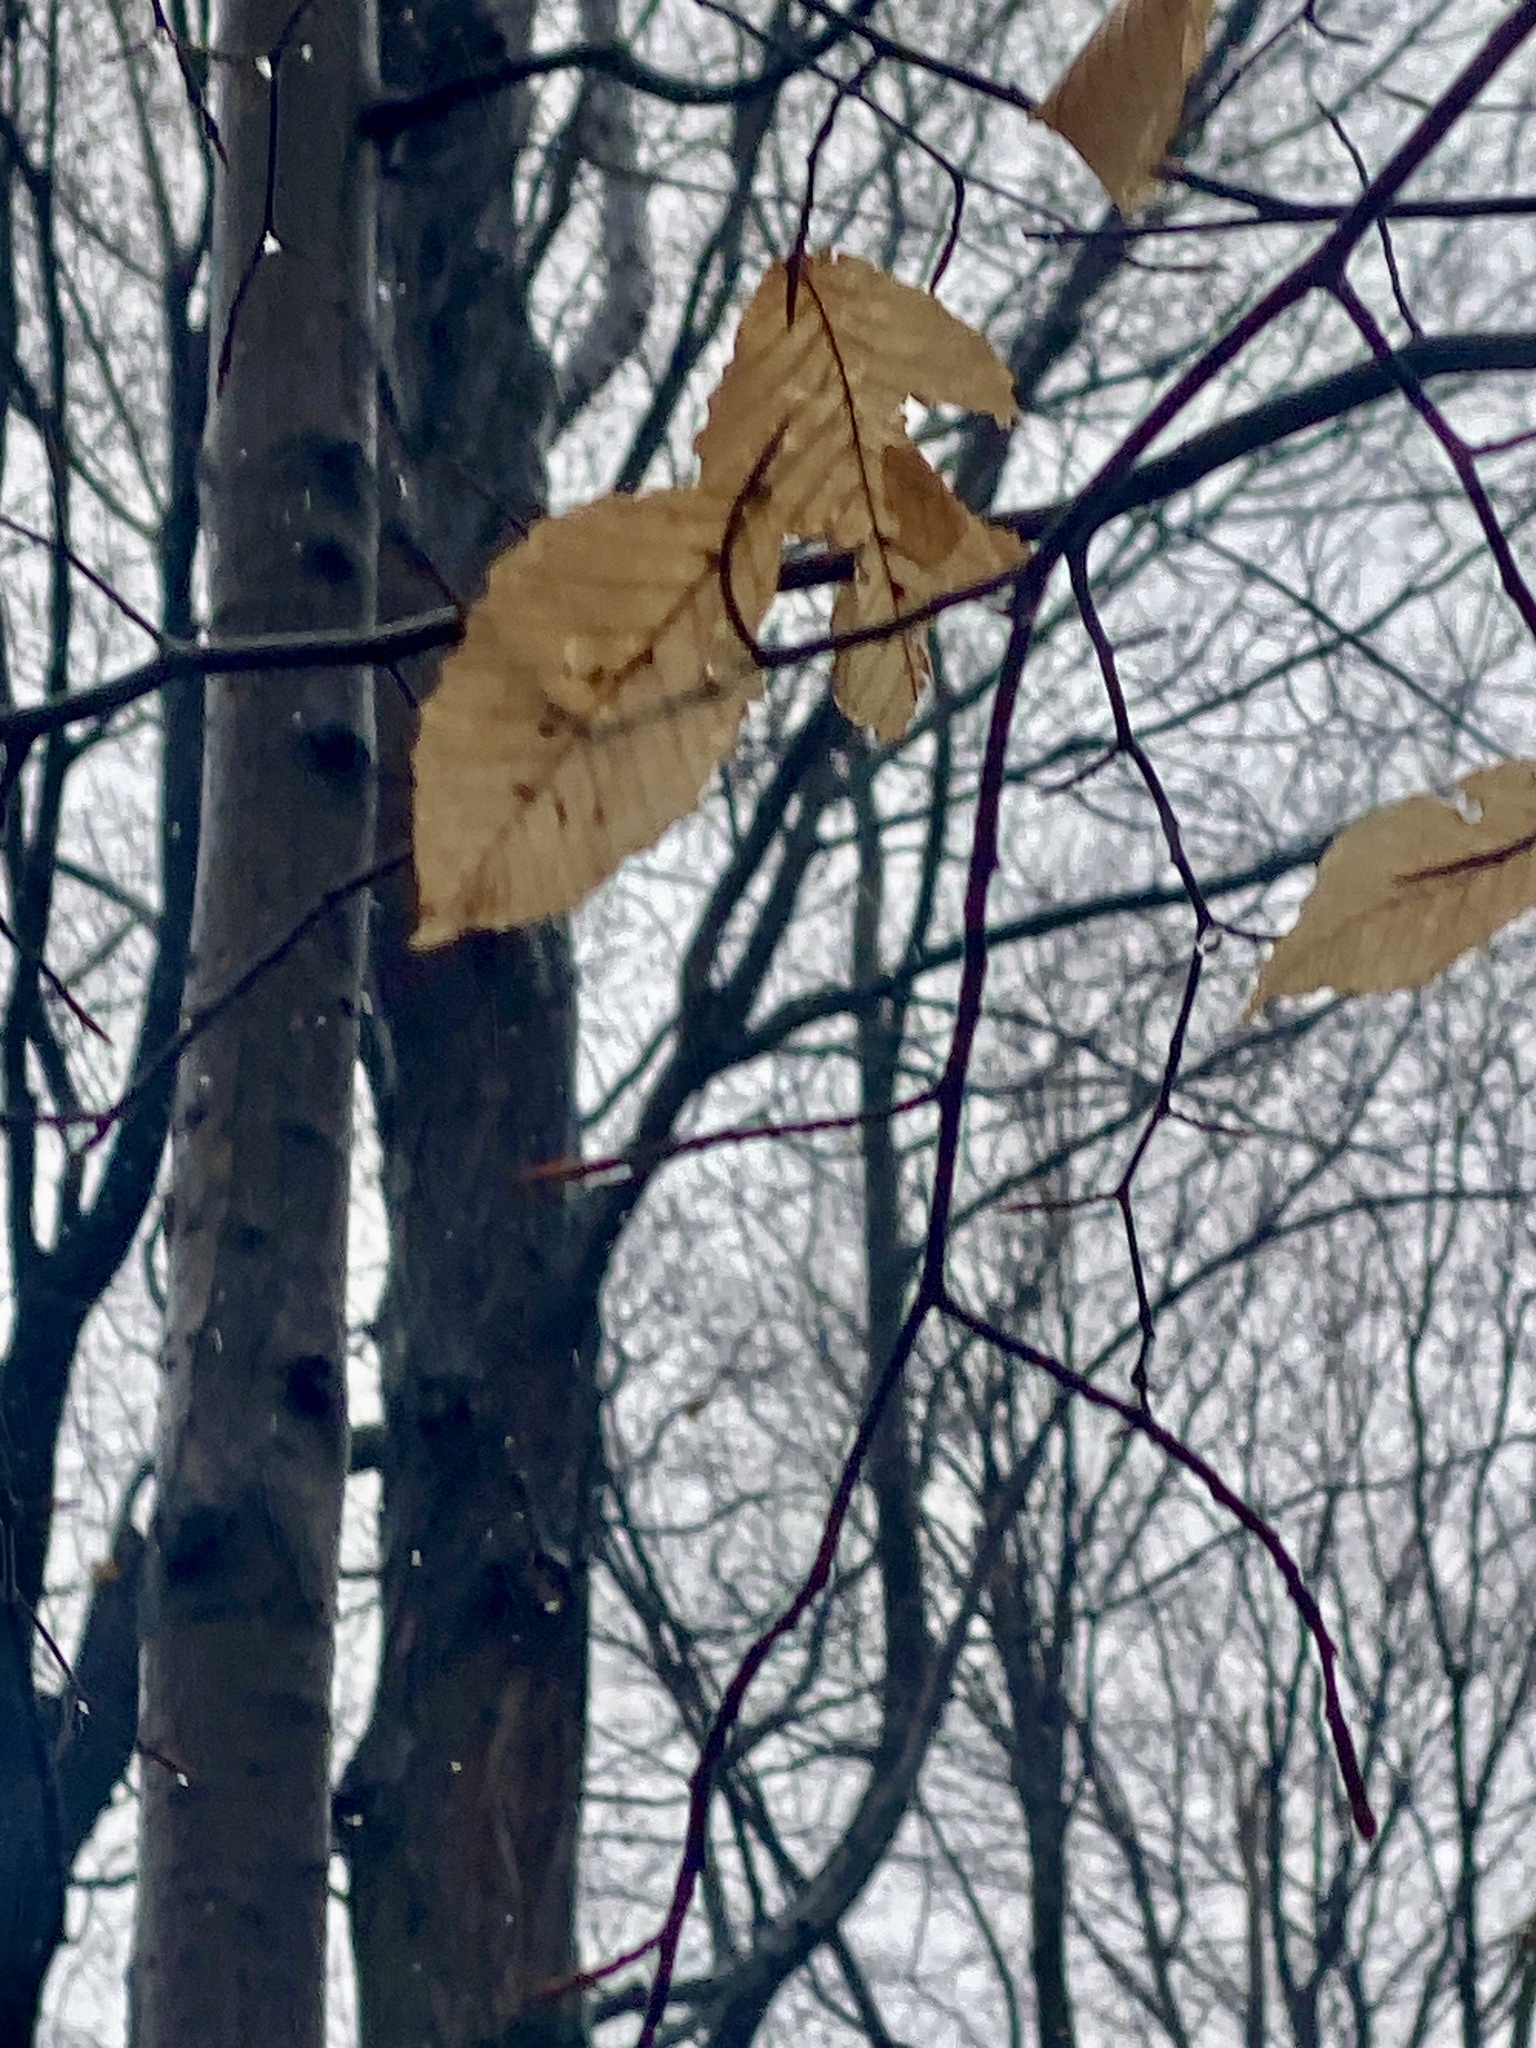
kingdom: Plantae
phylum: Tracheophyta
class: Magnoliopsida
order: Fagales
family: Fagaceae
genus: Fagus
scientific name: Fagus grandifolia
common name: American beech
